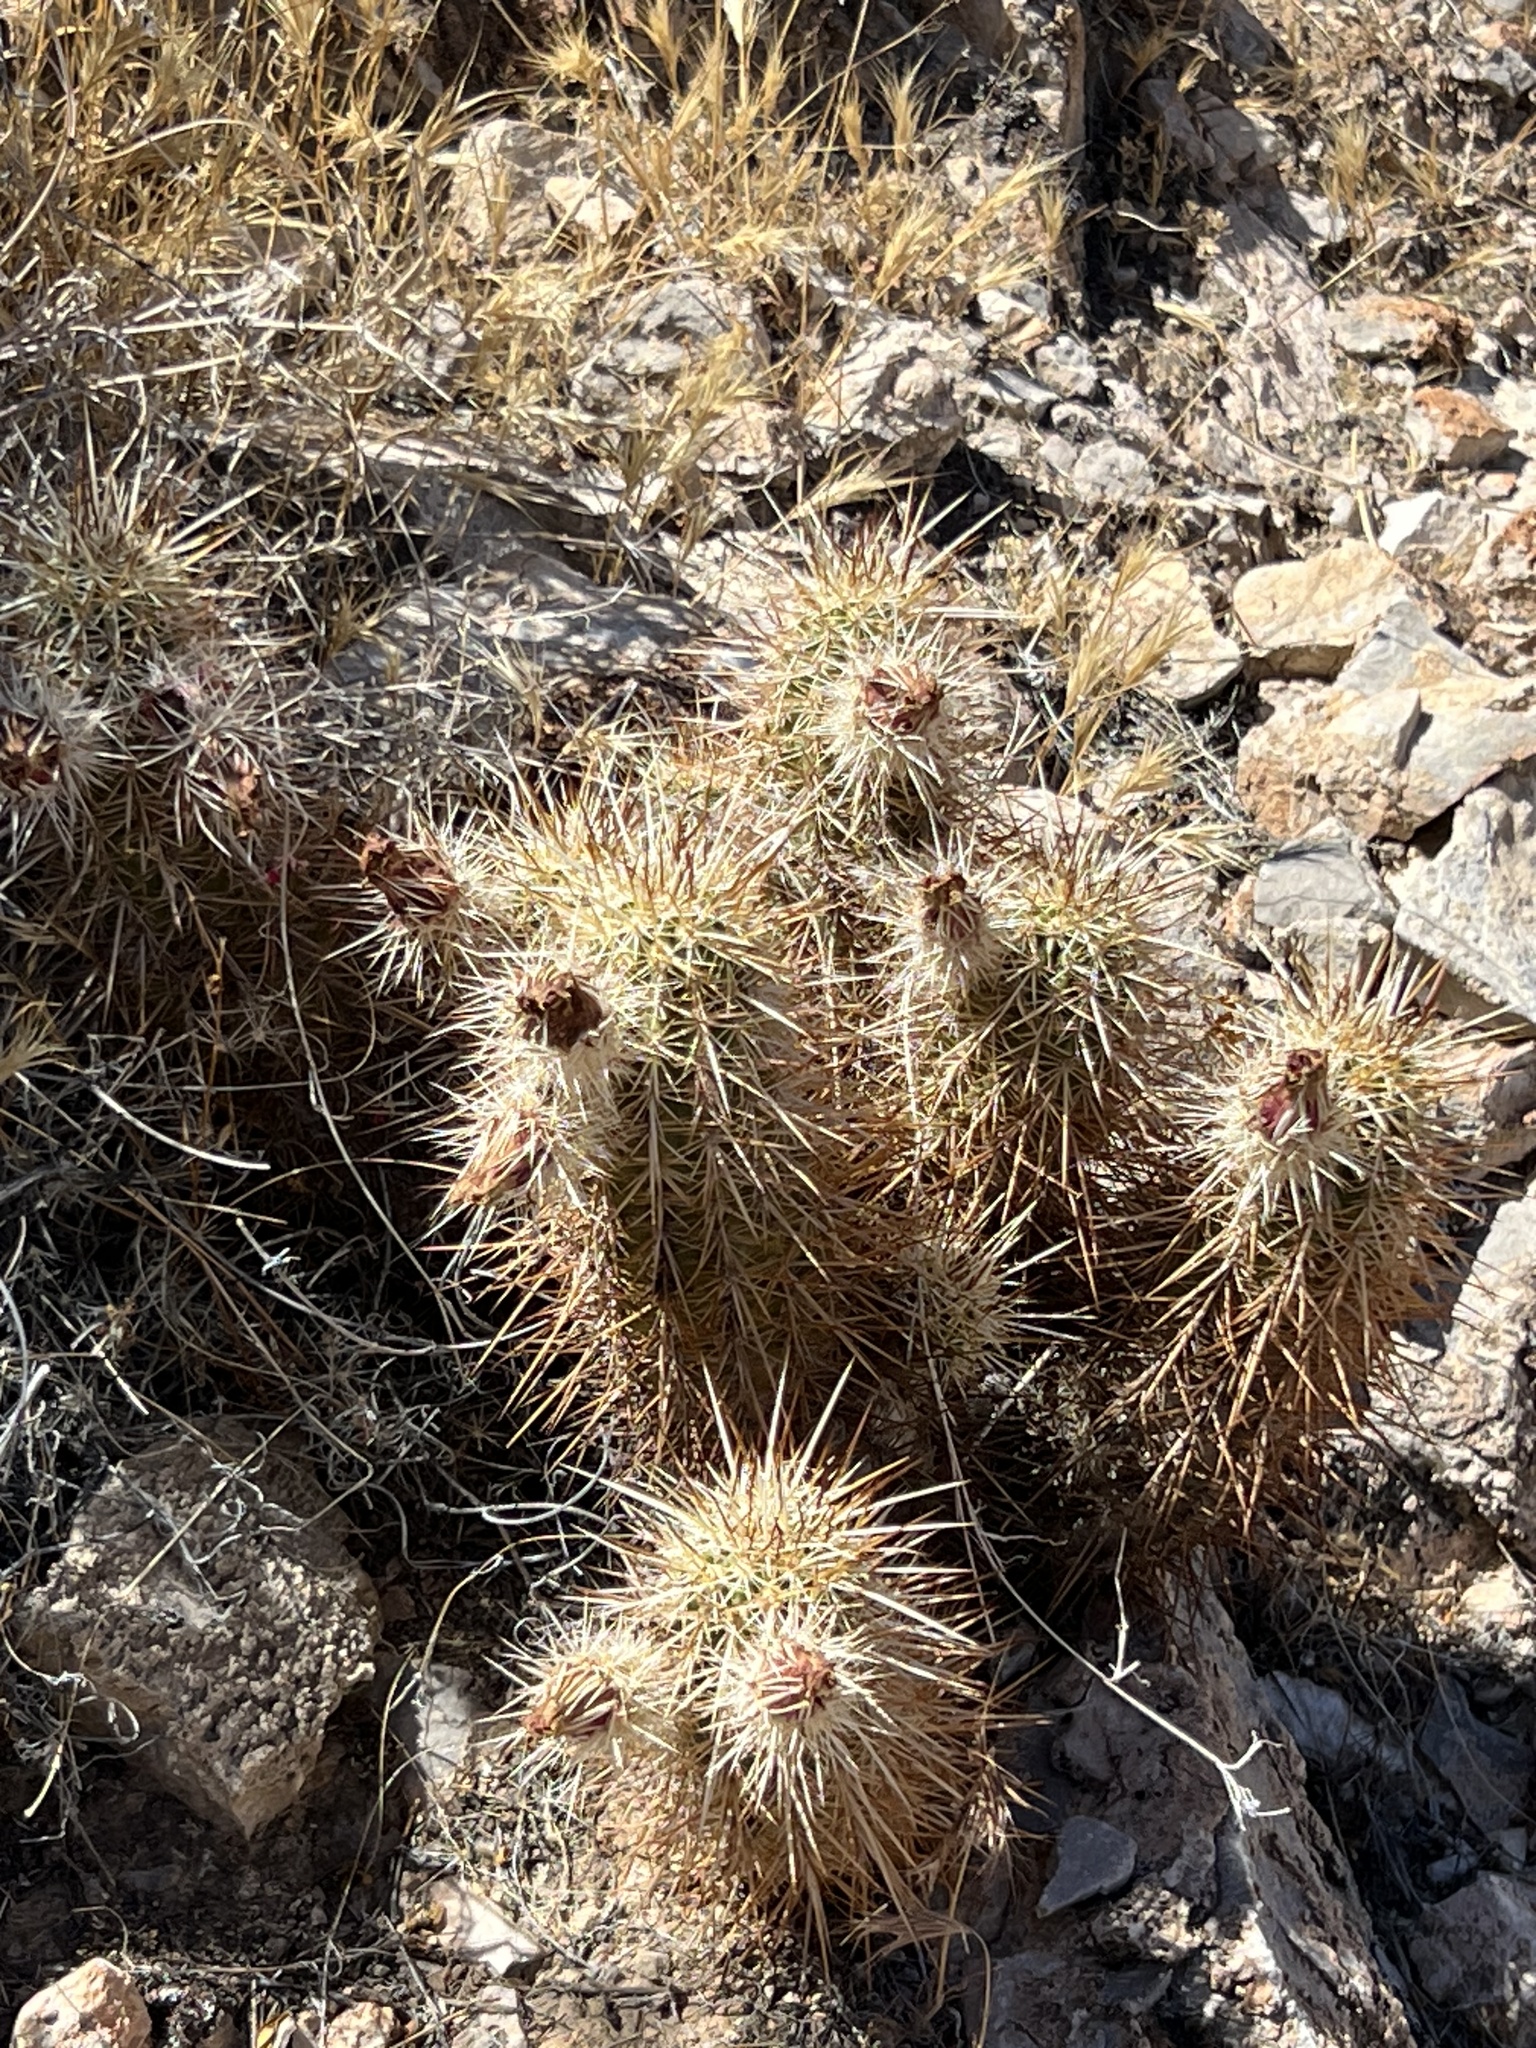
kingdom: Plantae
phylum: Tracheophyta
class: Magnoliopsida
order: Caryophyllales
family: Cactaceae
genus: Echinocereus
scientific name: Echinocereus engelmannii
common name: Engelmann's hedgehog cactus
